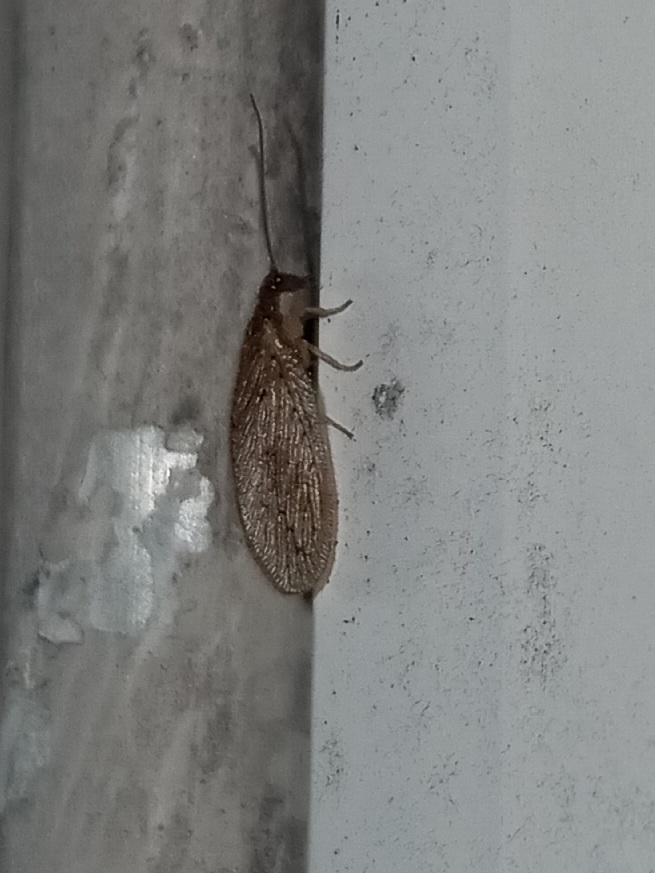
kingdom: Animalia
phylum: Arthropoda
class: Insecta
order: Neuroptera
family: Hemerobiidae
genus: Micromus
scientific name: Micromus subanticus
